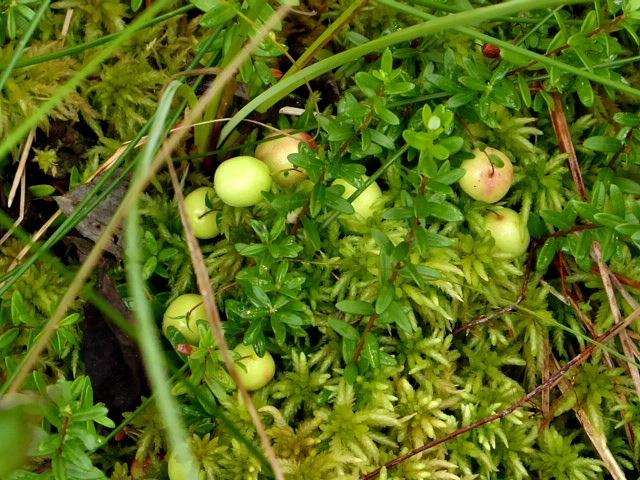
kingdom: Plantae
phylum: Tracheophyta
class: Magnoliopsida
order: Ericales
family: Ericaceae
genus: Vaccinium
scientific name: Vaccinium oxycoccos
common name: Cranberry
